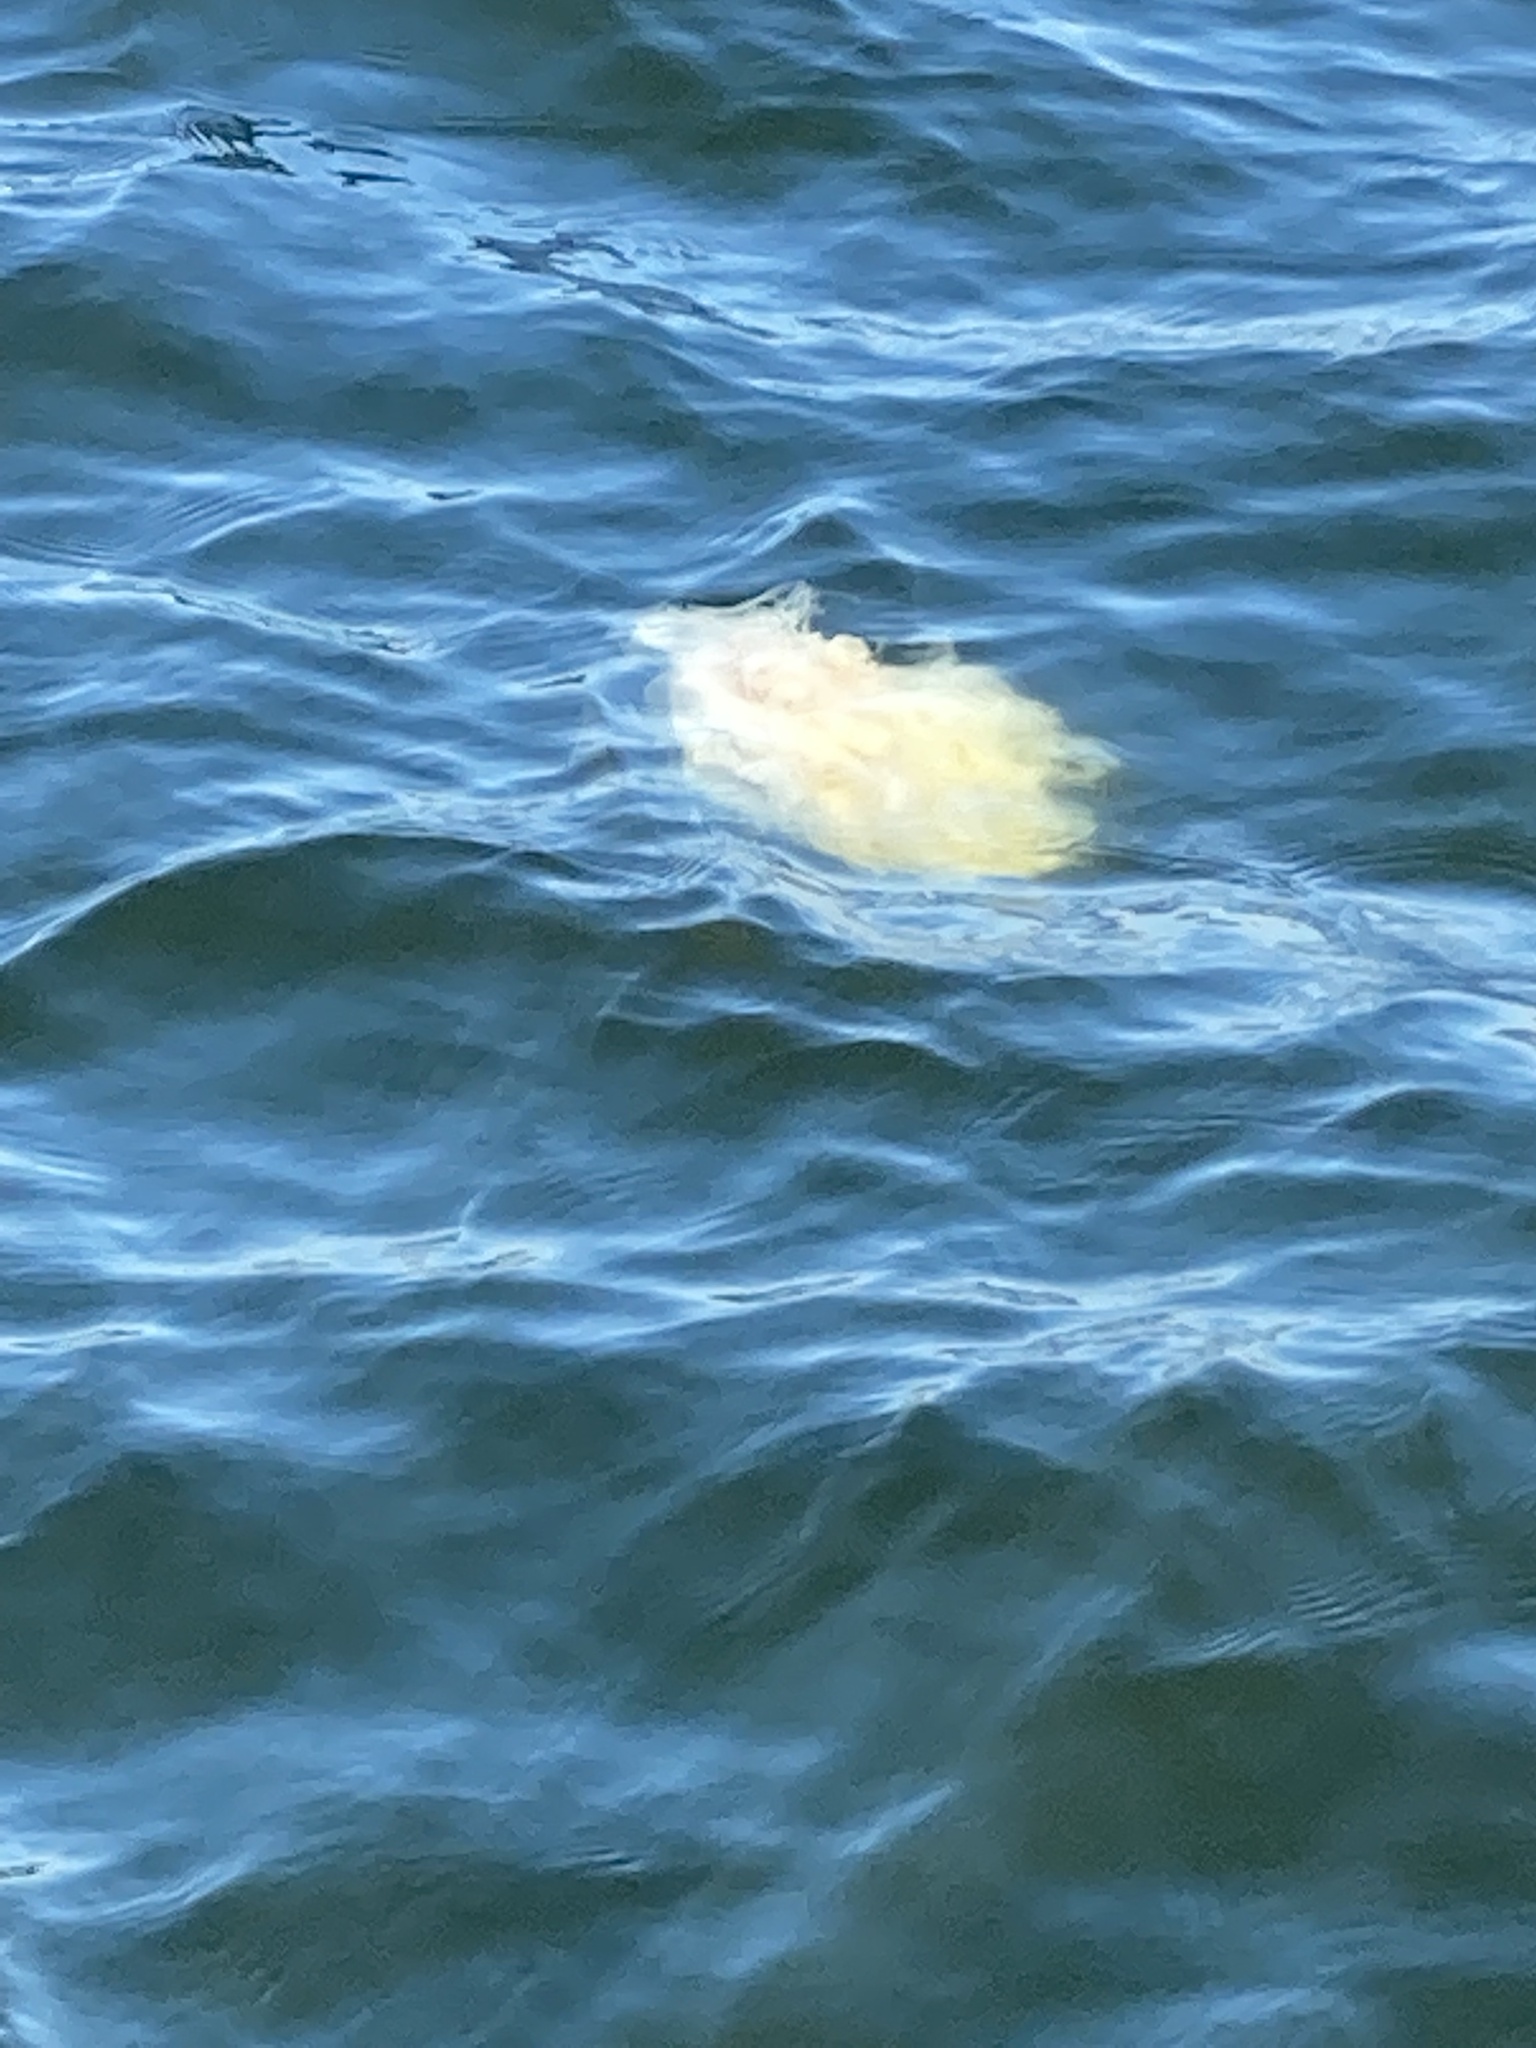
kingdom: Animalia
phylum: Cnidaria
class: Scyphozoa
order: Semaeostomeae
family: Phacellophoridae
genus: Phacellophora
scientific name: Phacellophora camtschatica
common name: Fried-egg jellyfish
